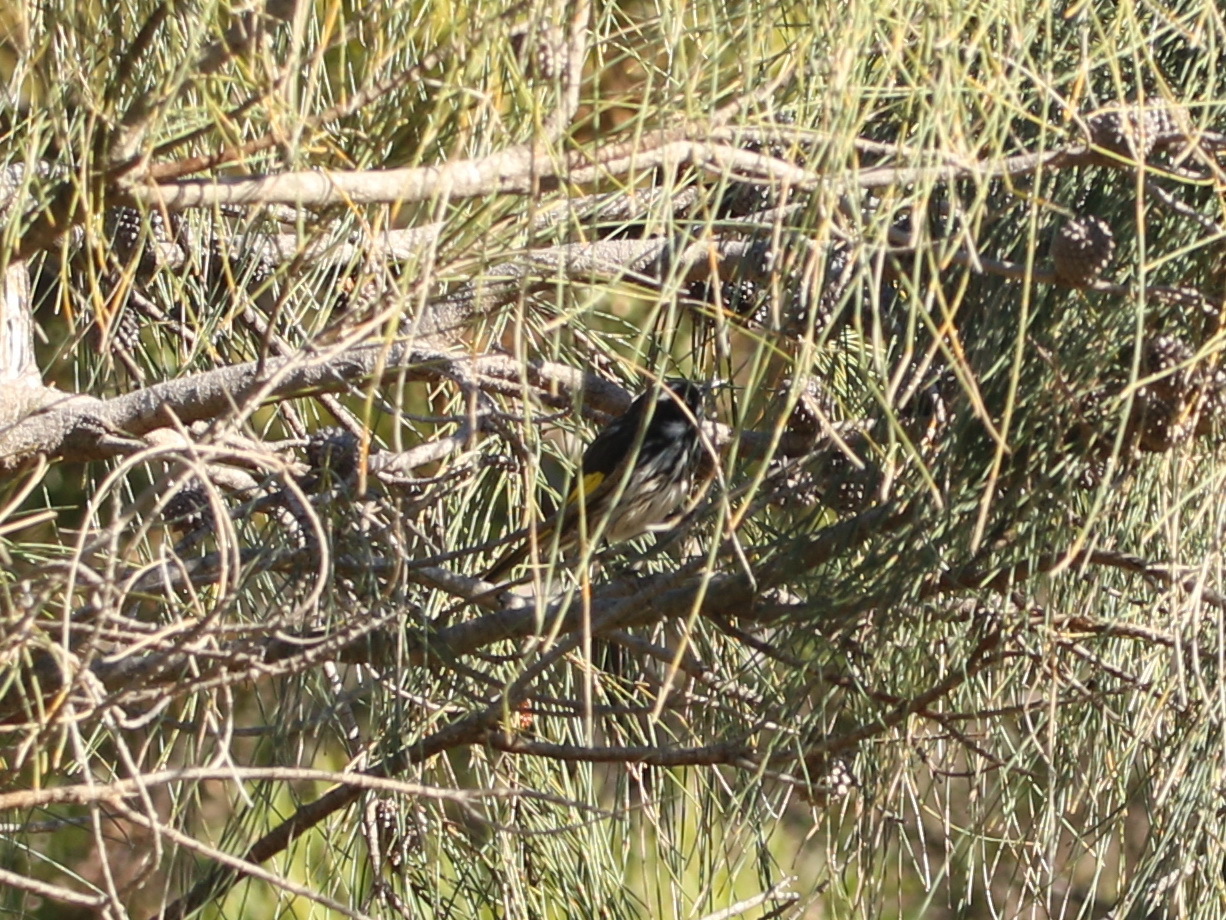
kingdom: Animalia
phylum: Chordata
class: Aves
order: Passeriformes
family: Meliphagidae
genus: Phylidonyris
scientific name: Phylidonyris novaehollandiae
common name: New holland honeyeater
